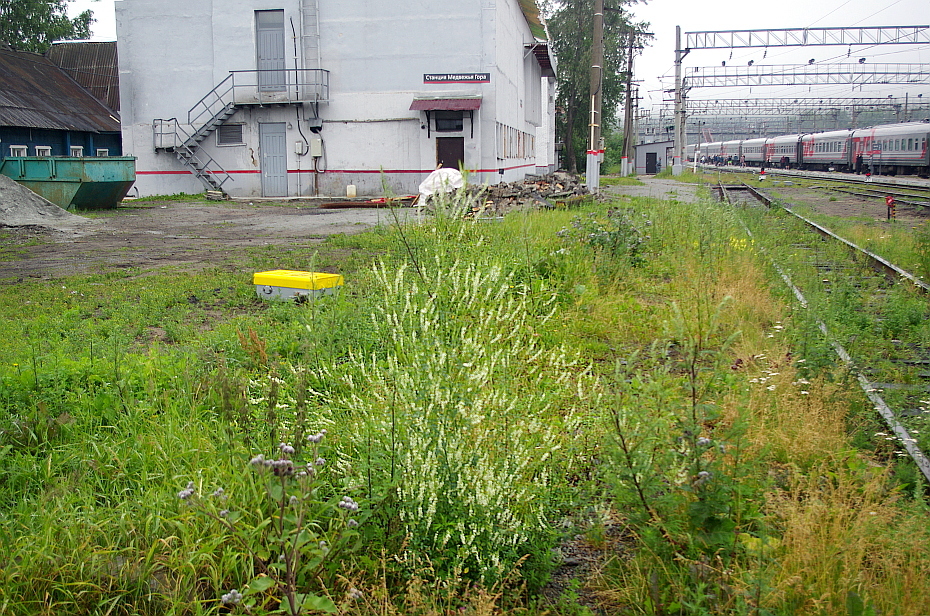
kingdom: Plantae
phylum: Tracheophyta
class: Magnoliopsida
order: Fabales
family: Fabaceae
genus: Melilotus
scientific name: Melilotus albus
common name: White melilot
